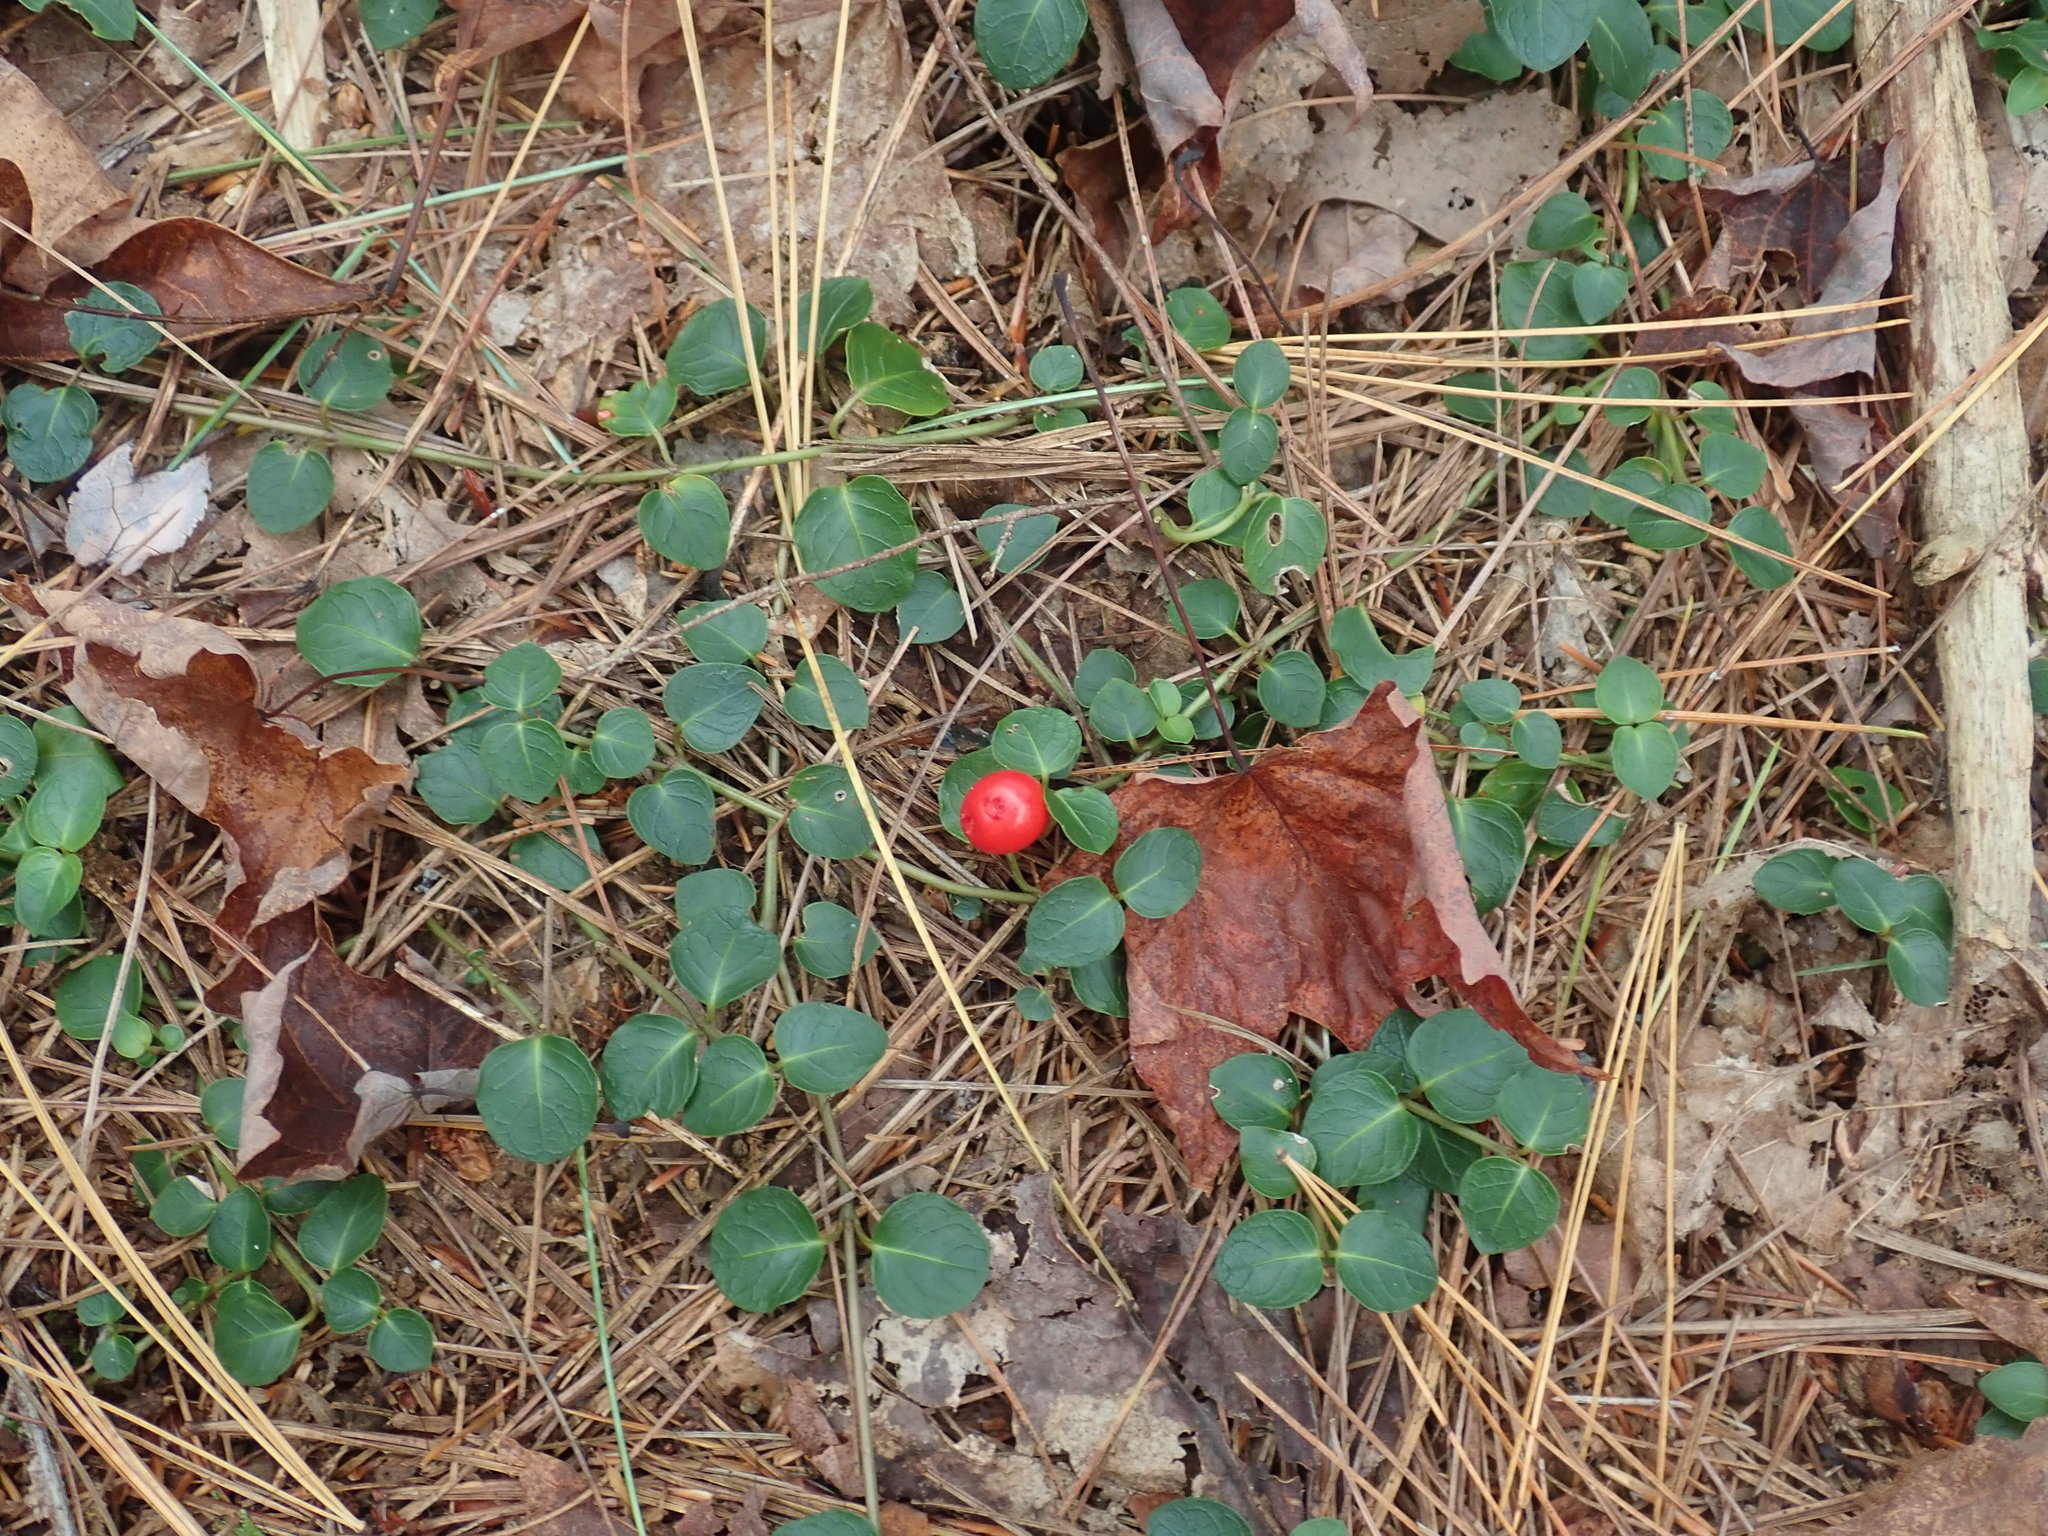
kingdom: Plantae
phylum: Tracheophyta
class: Magnoliopsida
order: Gentianales
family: Rubiaceae
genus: Mitchella
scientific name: Mitchella repens
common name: Partridge-berry
